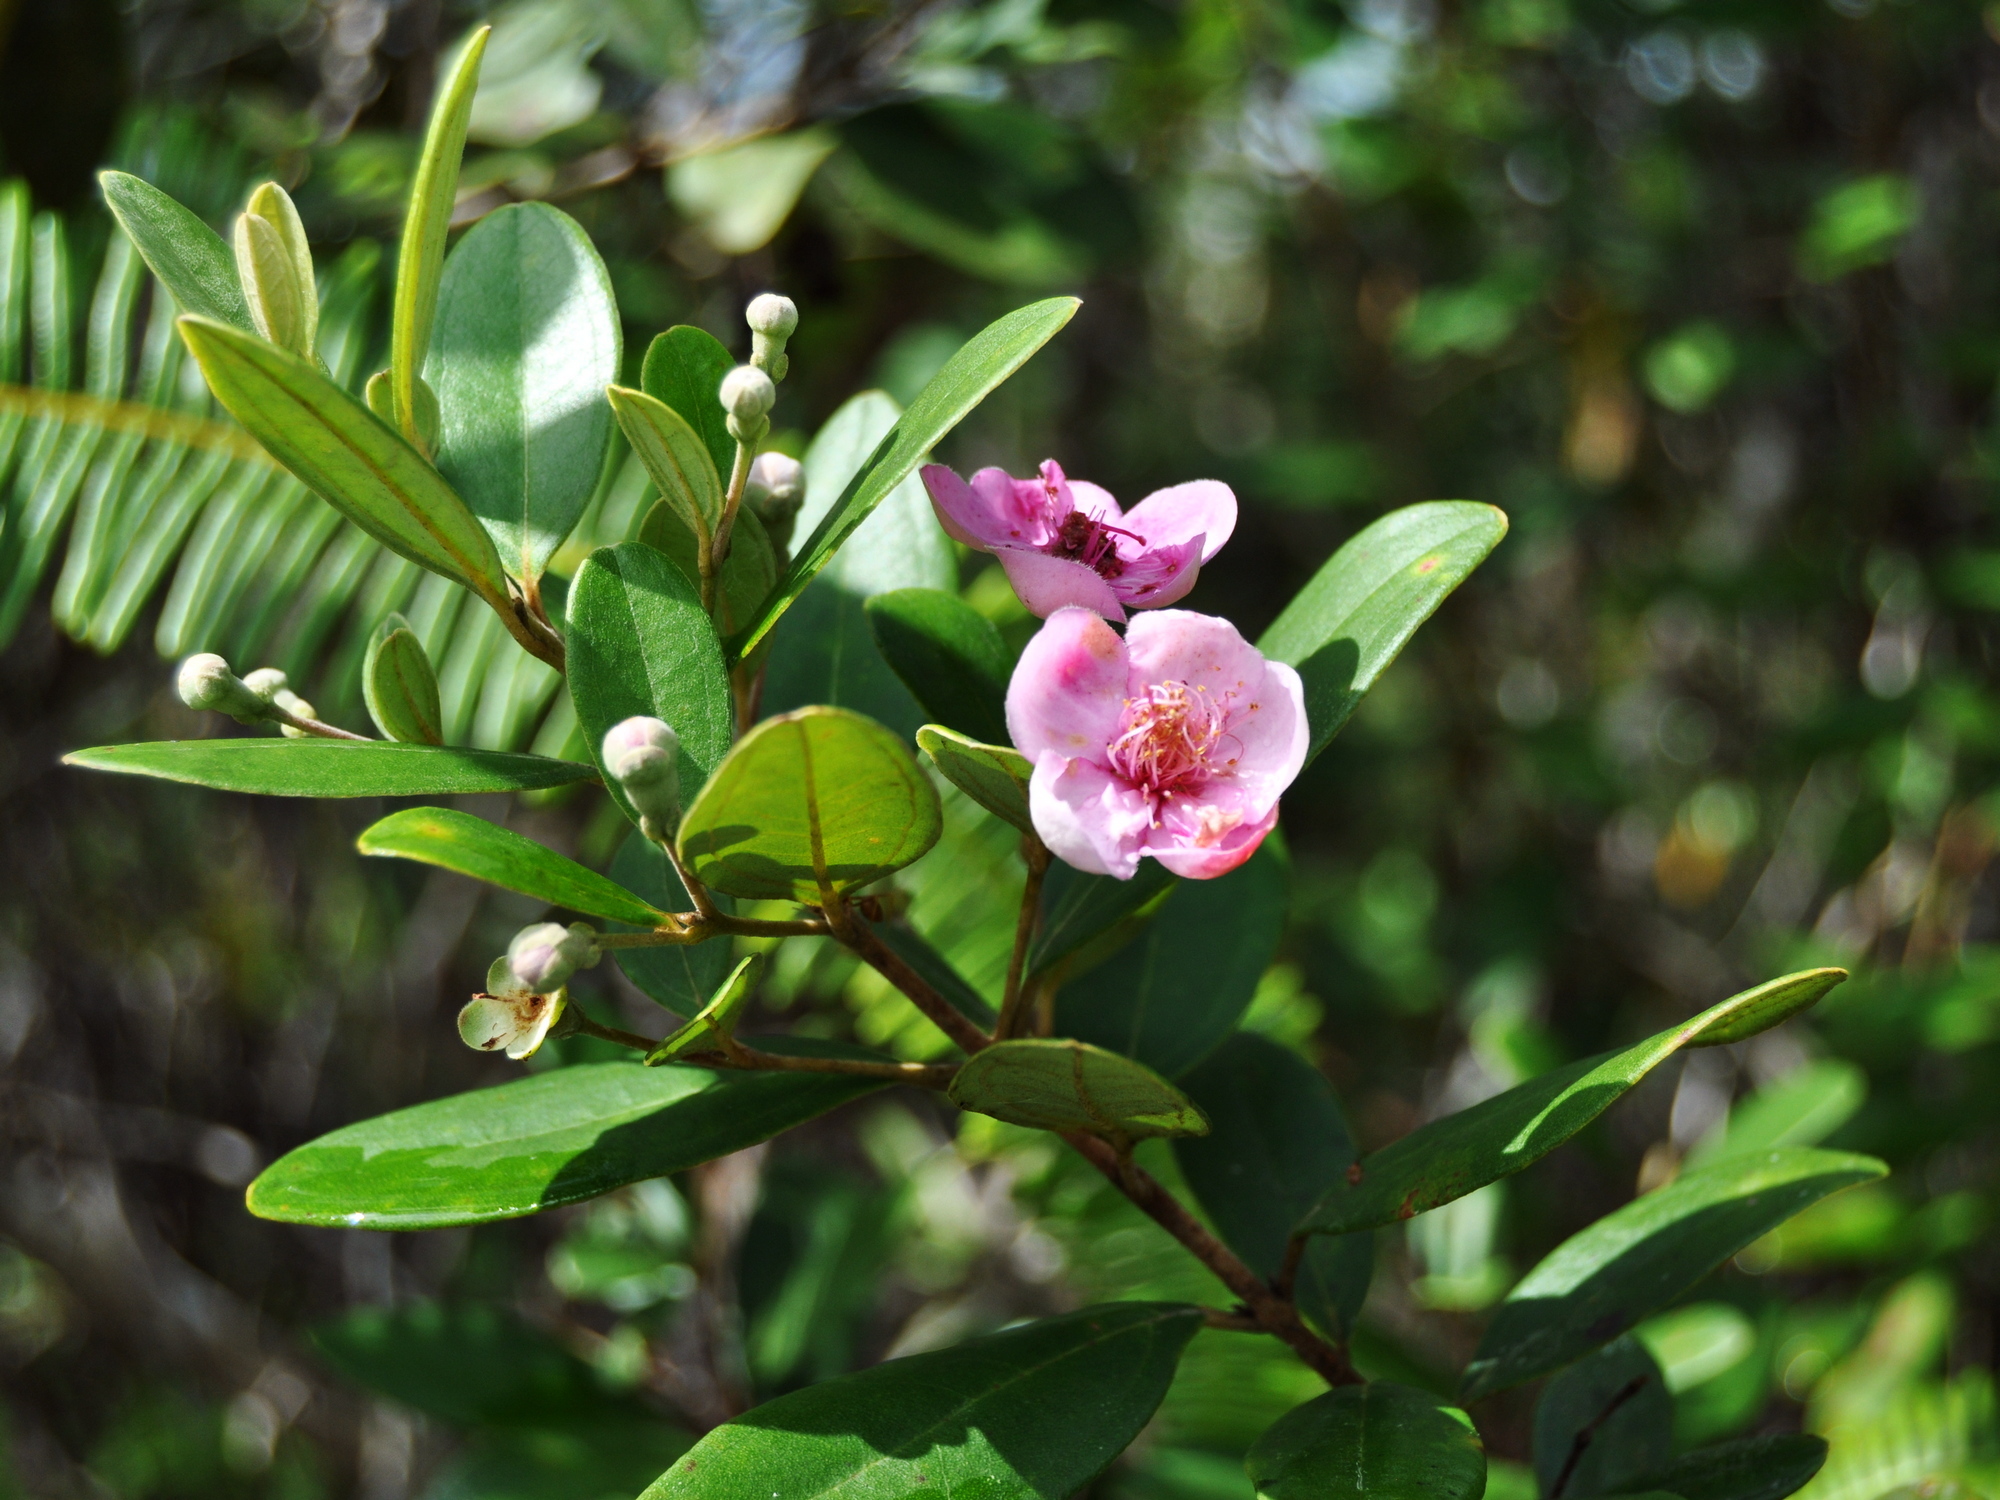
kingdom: Plantae
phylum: Tracheophyta
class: Magnoliopsida
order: Myrtales
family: Myrtaceae
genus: Rhodomyrtus
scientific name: Rhodomyrtus tomentosa
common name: Rose myrtle
